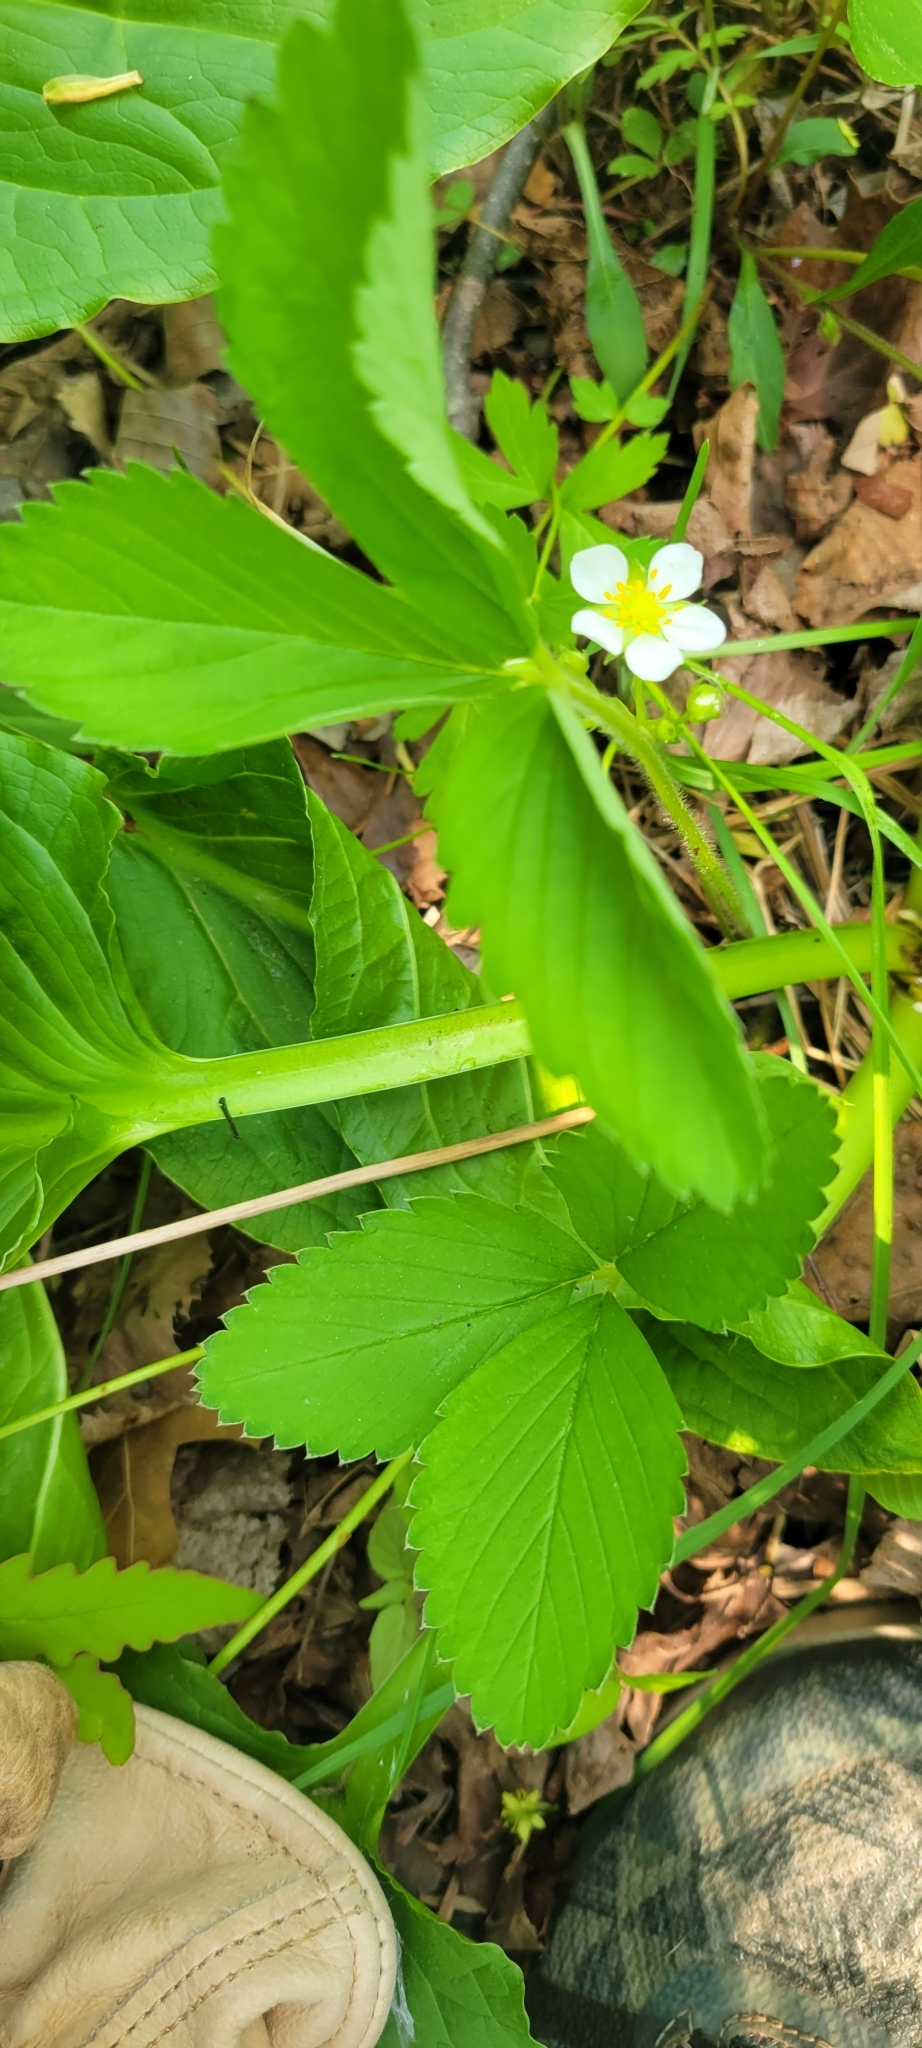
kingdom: Plantae
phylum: Tracheophyta
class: Magnoliopsida
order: Rosales
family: Rosaceae
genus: Fragaria
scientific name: Fragaria virginiana
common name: Thickleaved wild strawberry
